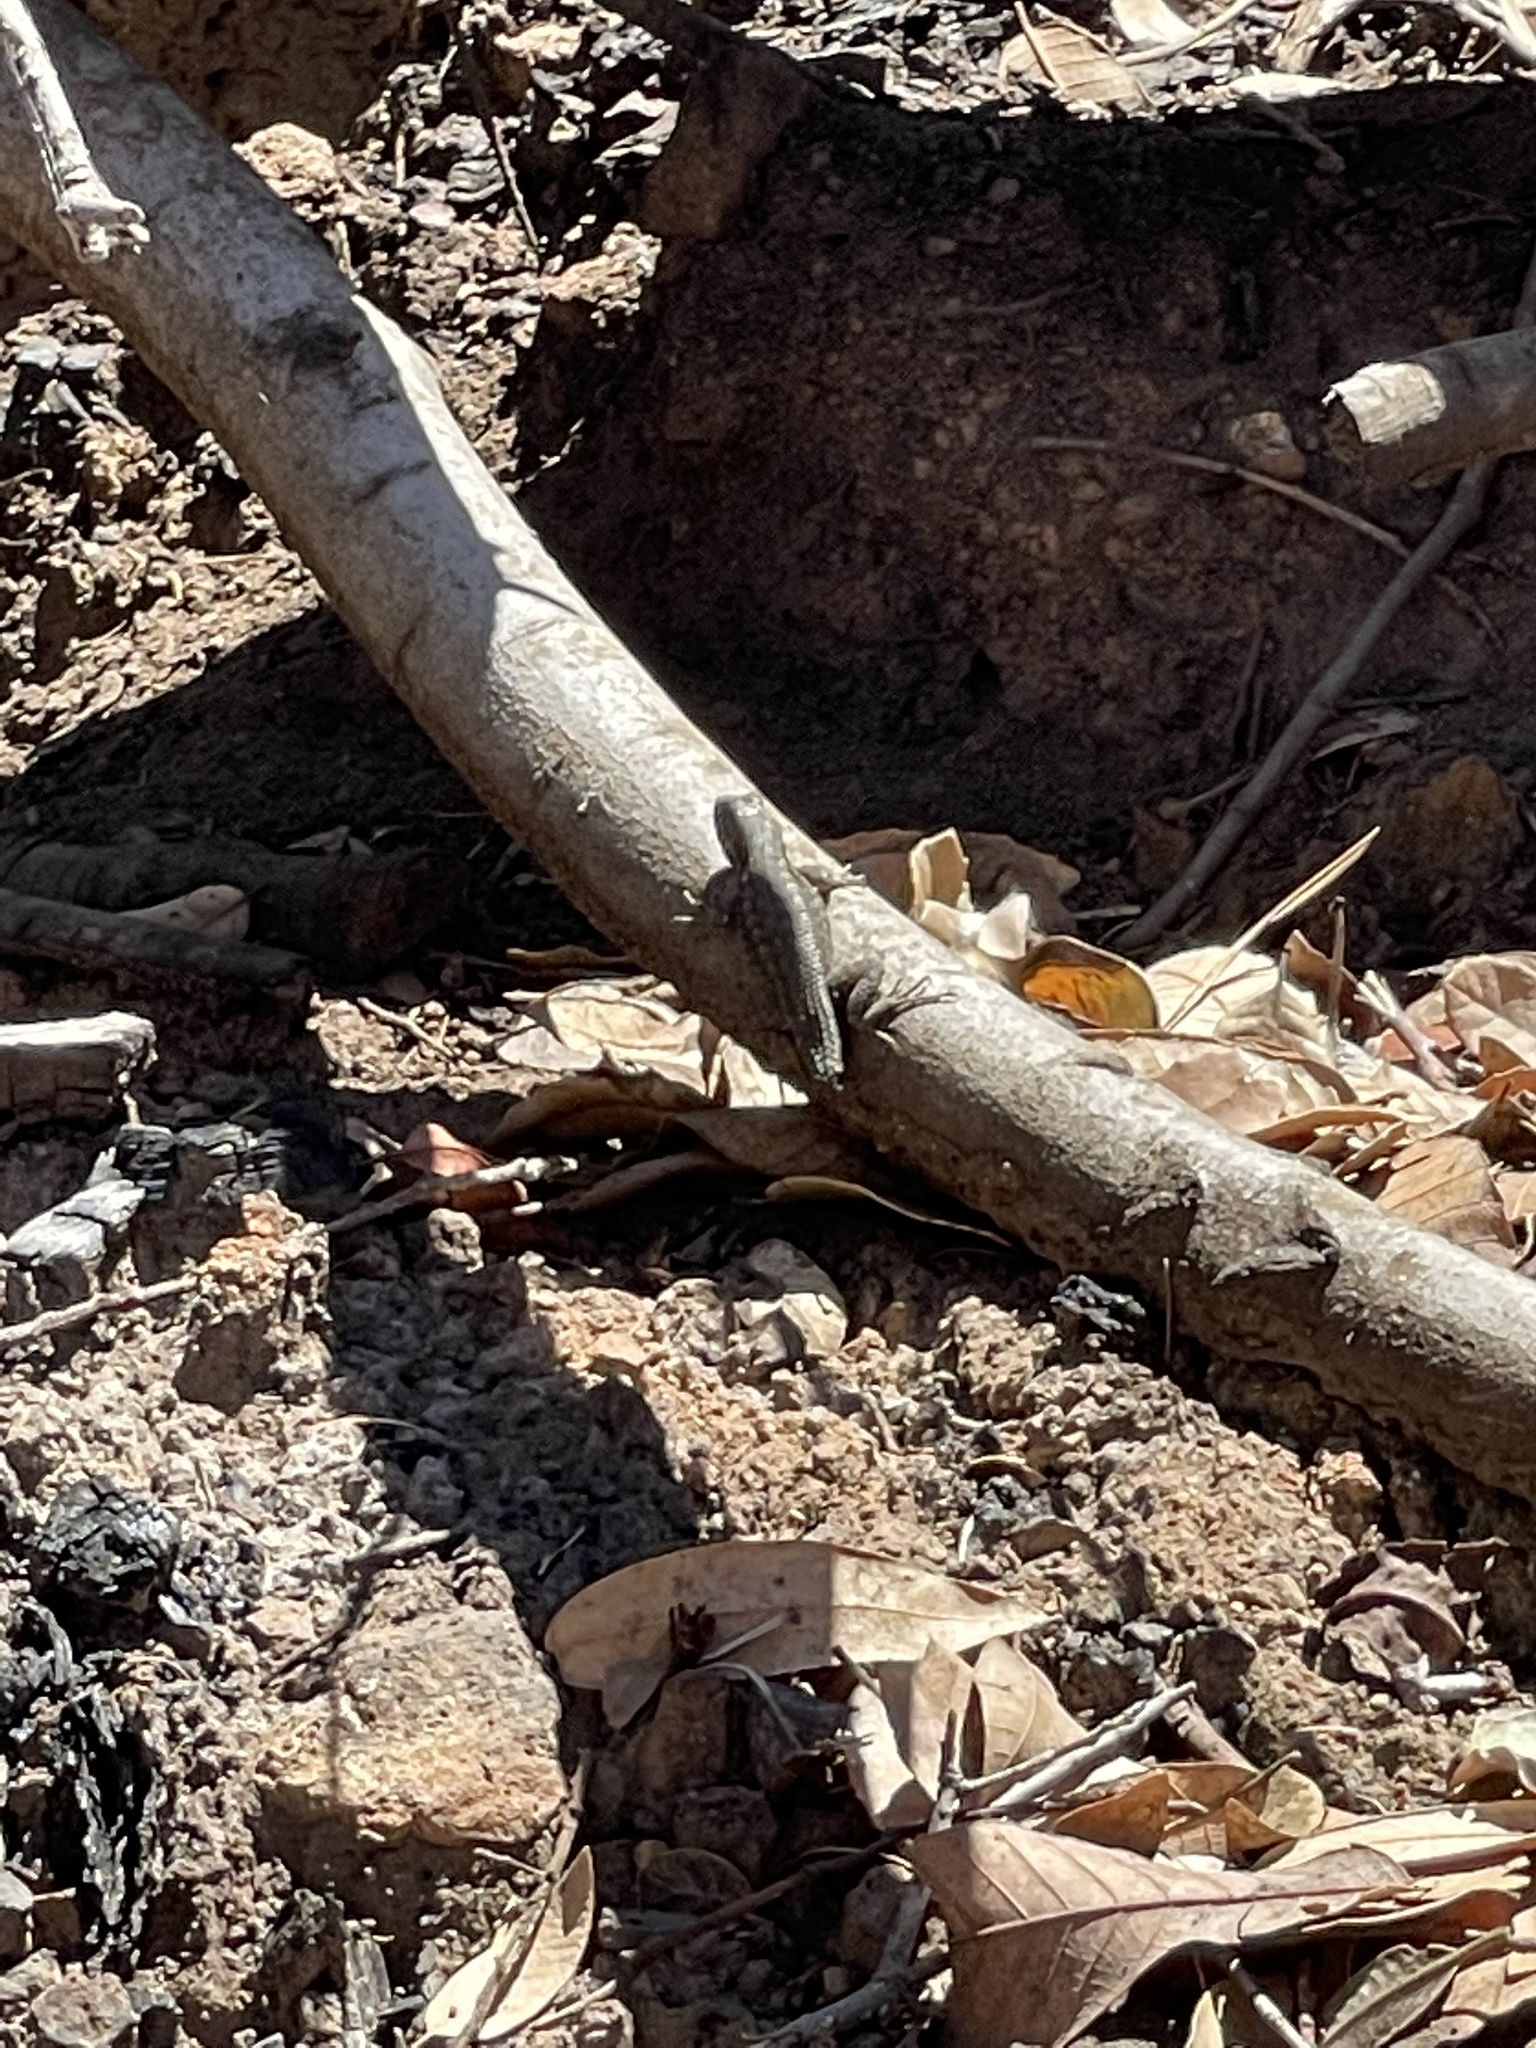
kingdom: Animalia
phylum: Chordata
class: Squamata
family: Phrynosomatidae
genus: Sceloporus
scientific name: Sceloporus occidentalis
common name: Western fence lizard
